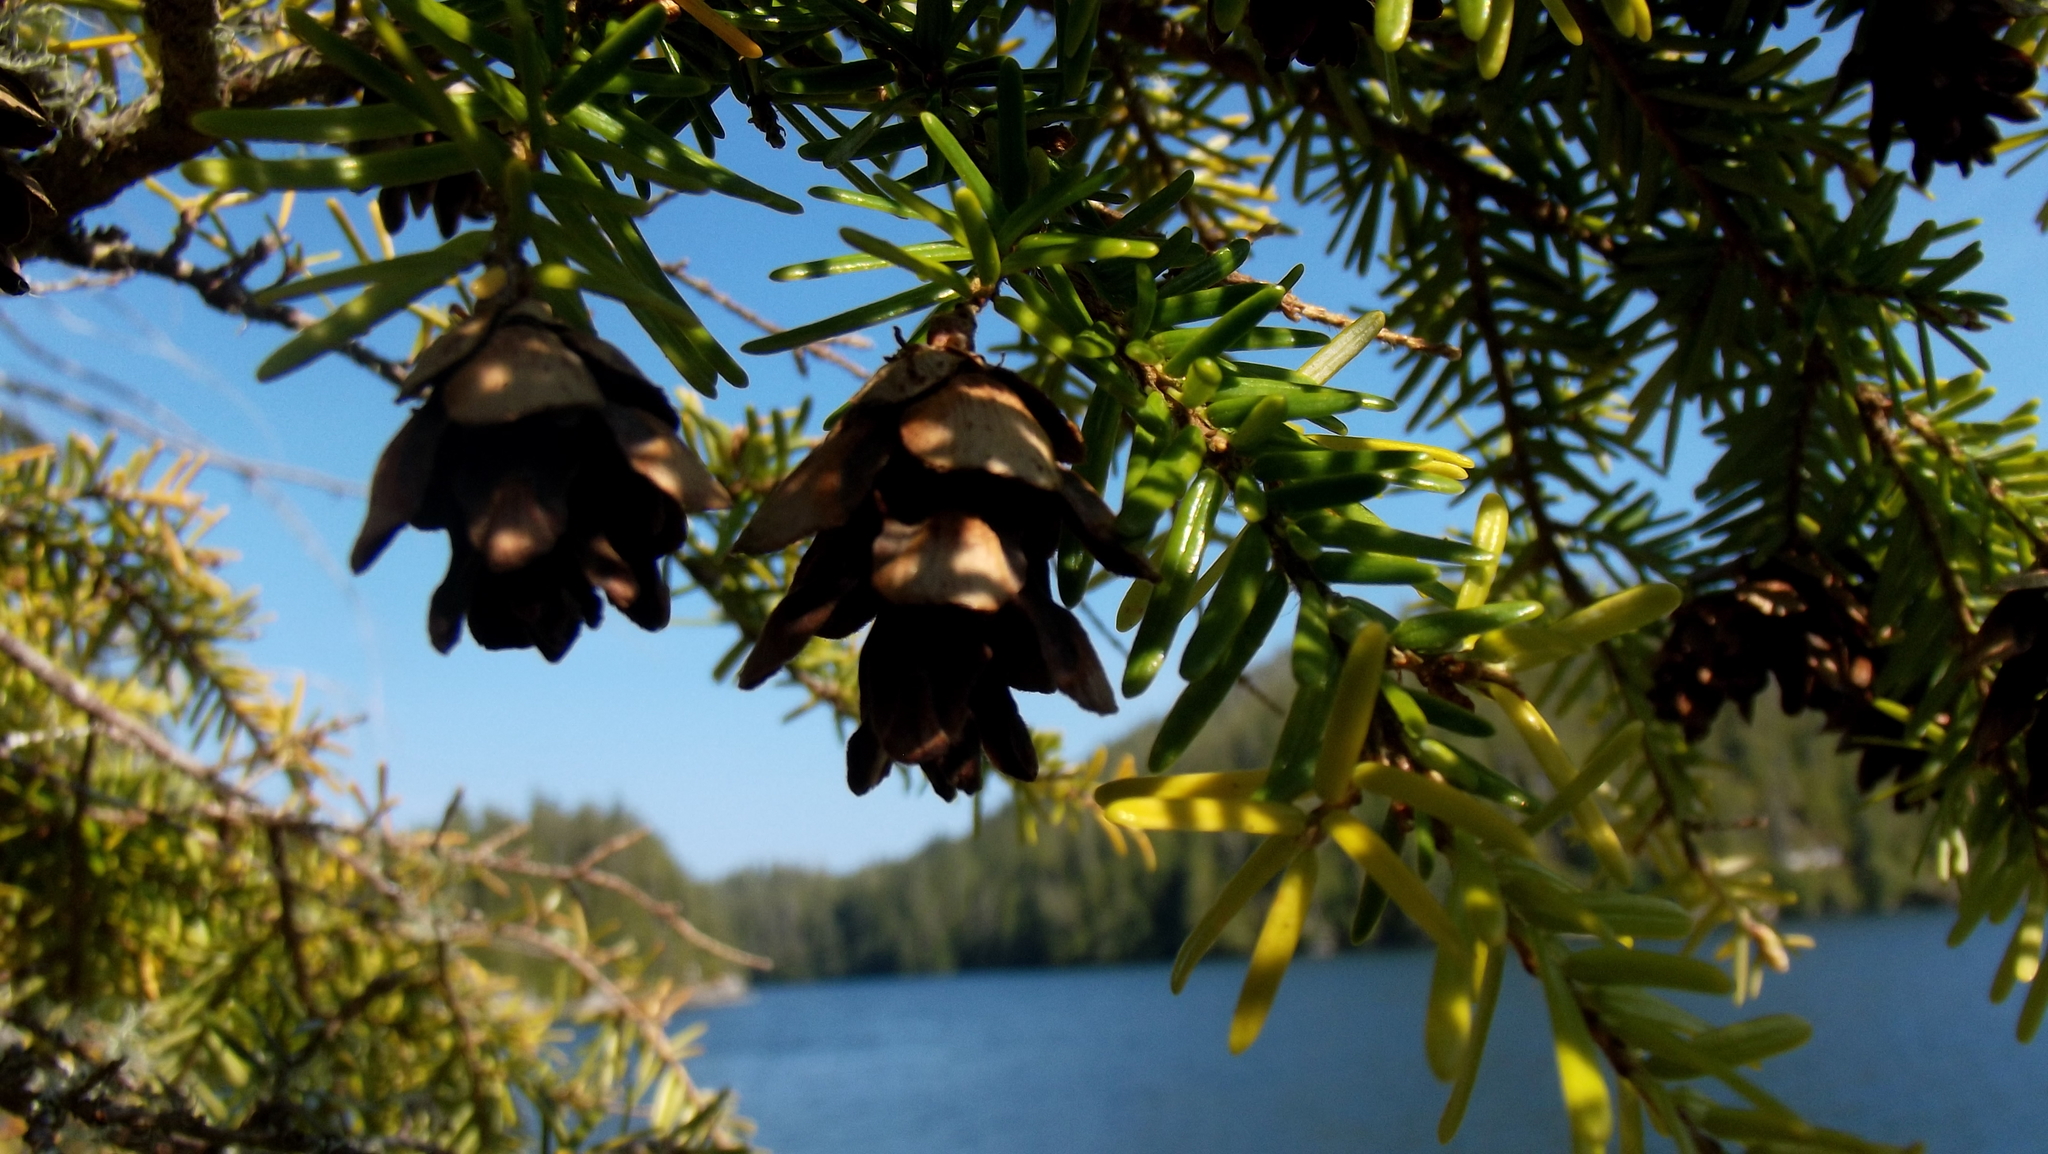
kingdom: Plantae
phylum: Tracheophyta
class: Pinopsida
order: Pinales
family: Pinaceae
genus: Tsuga
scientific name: Tsuga heterophylla
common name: Western hemlock
